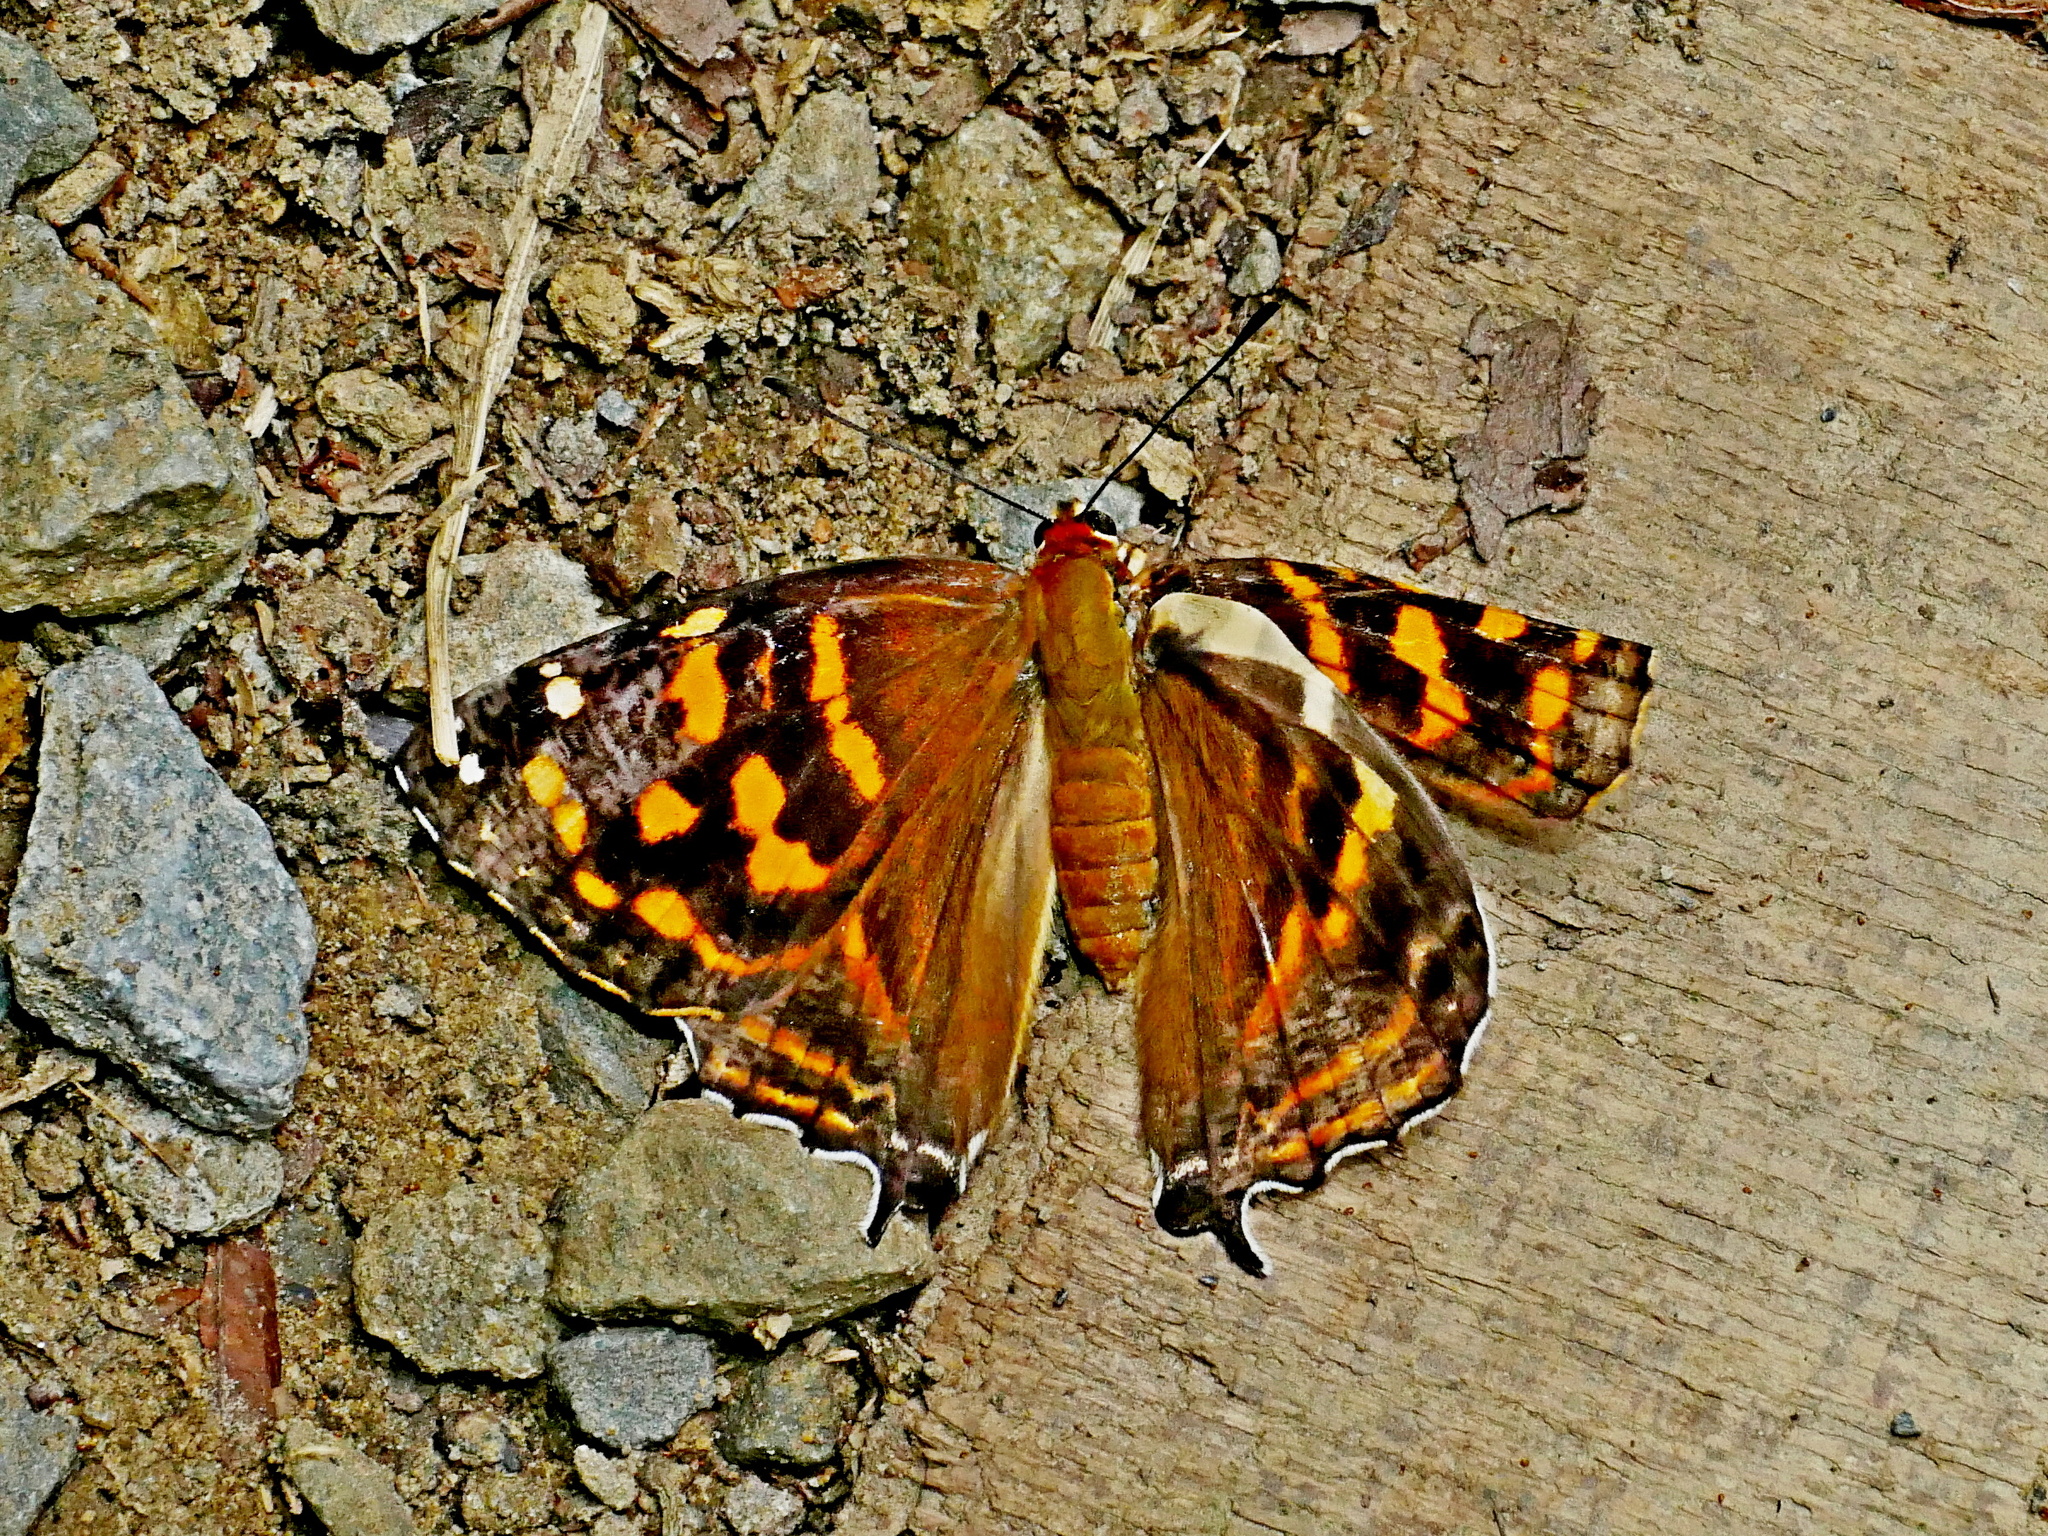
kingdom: Animalia
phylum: Arthropoda
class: Insecta
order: Lepidoptera
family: Lycaenidae
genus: Dodona
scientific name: Dodona eugenes
